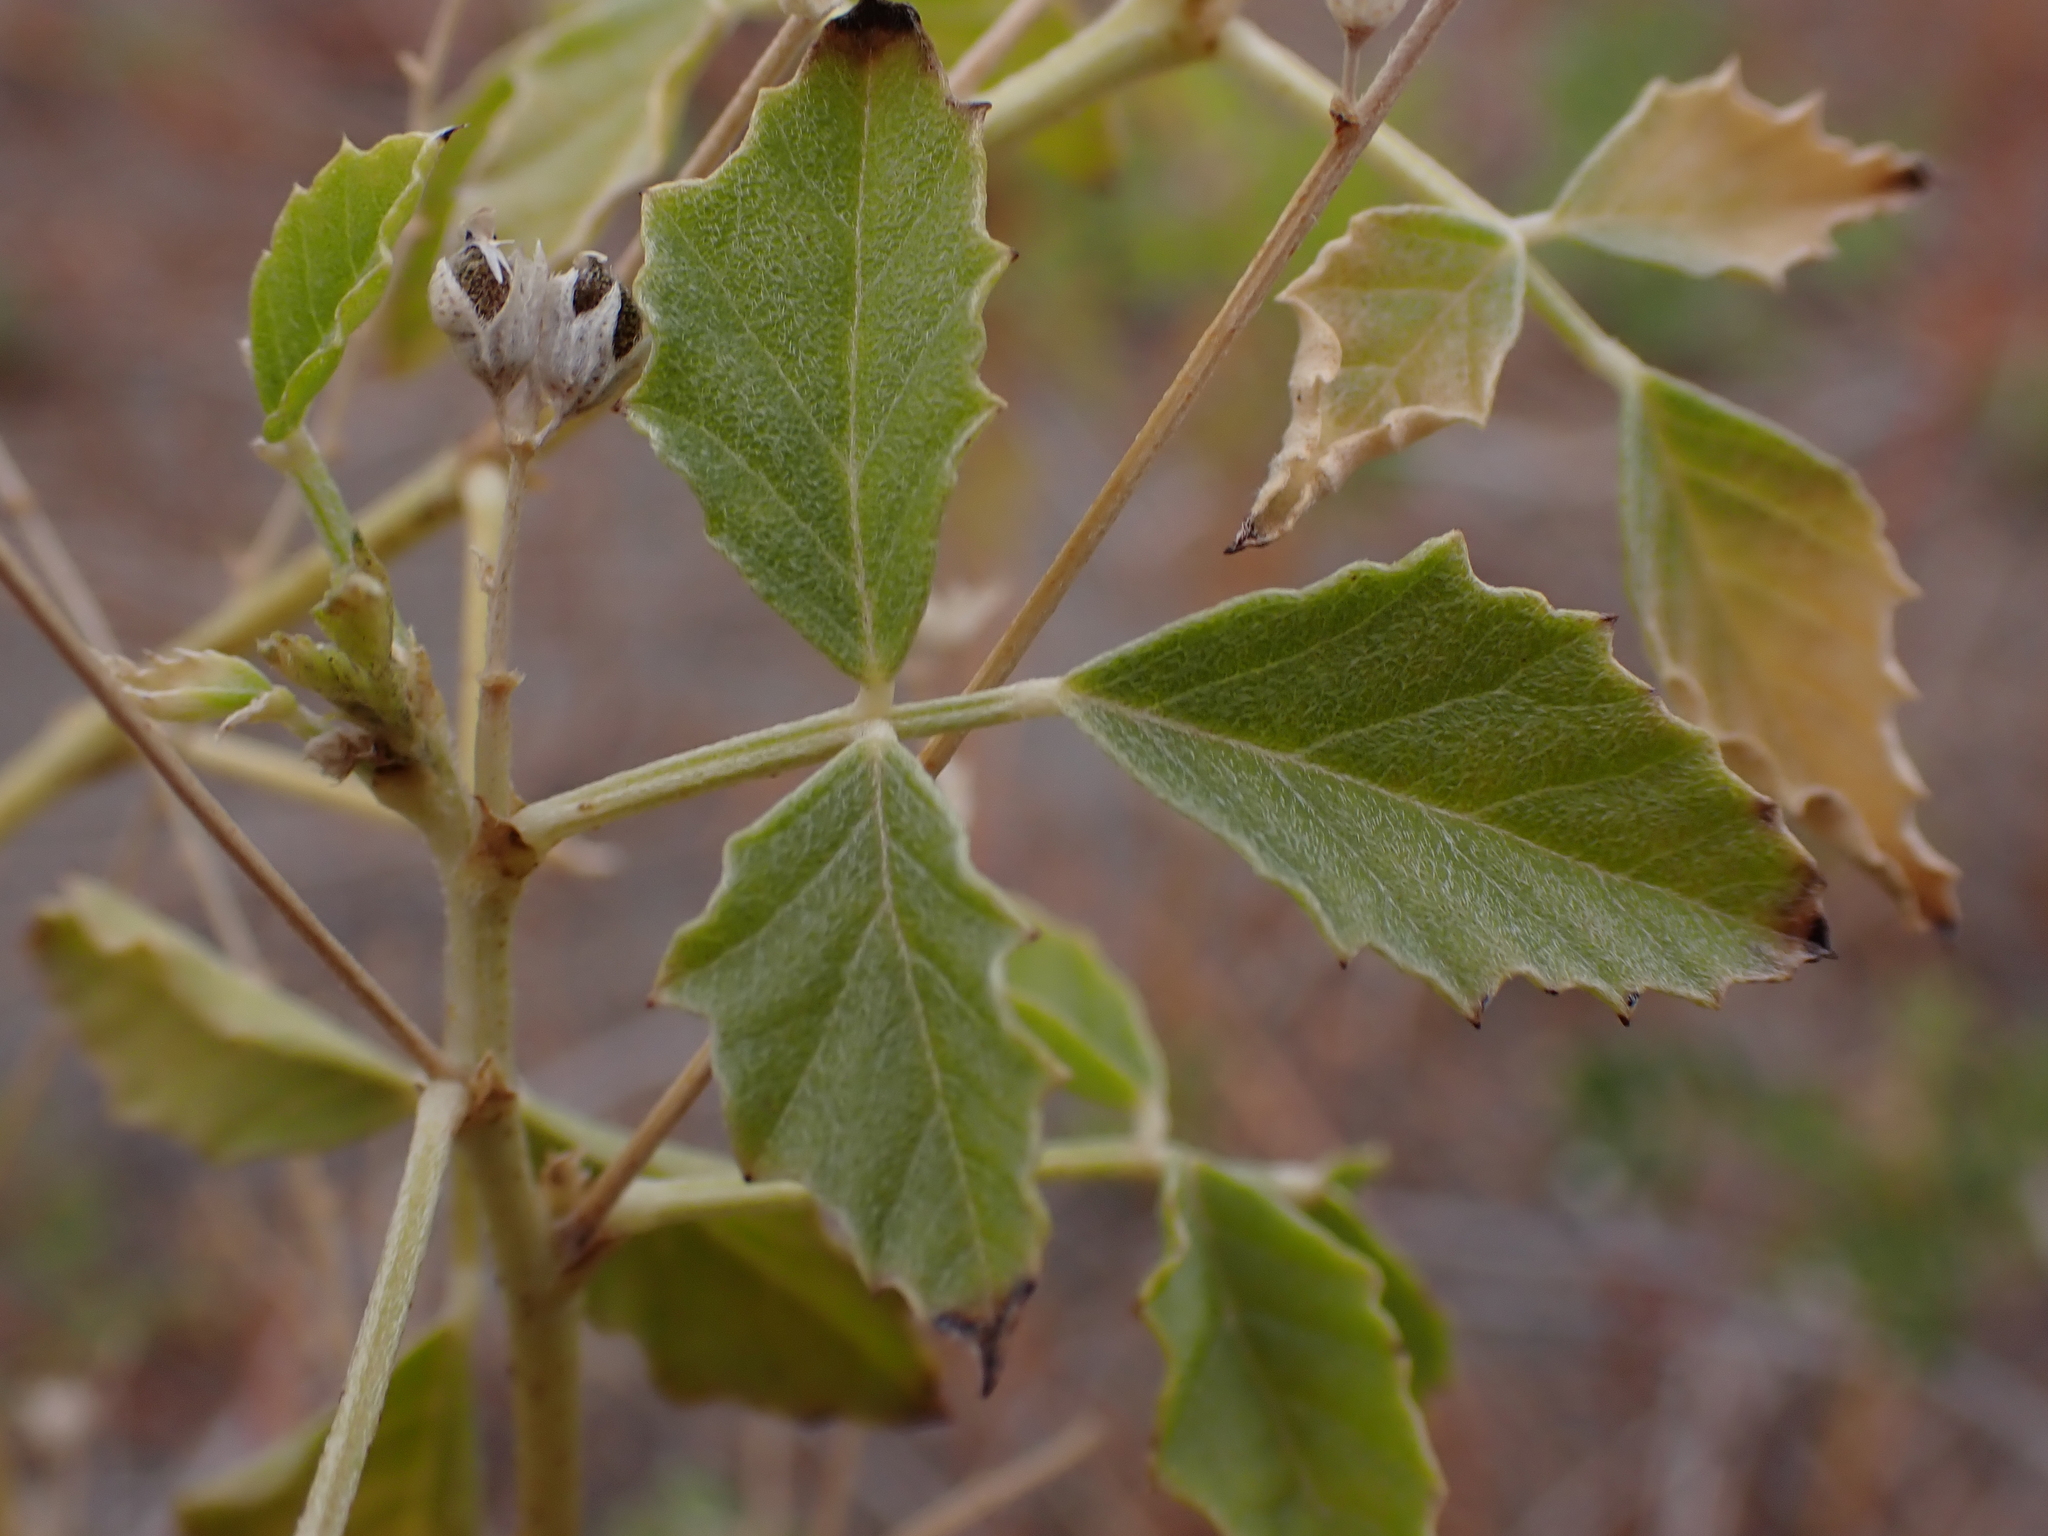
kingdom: Plantae
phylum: Tracheophyta
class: Magnoliopsida
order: Fabales
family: Fabaceae
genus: Cullen
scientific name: Cullen cinereum
